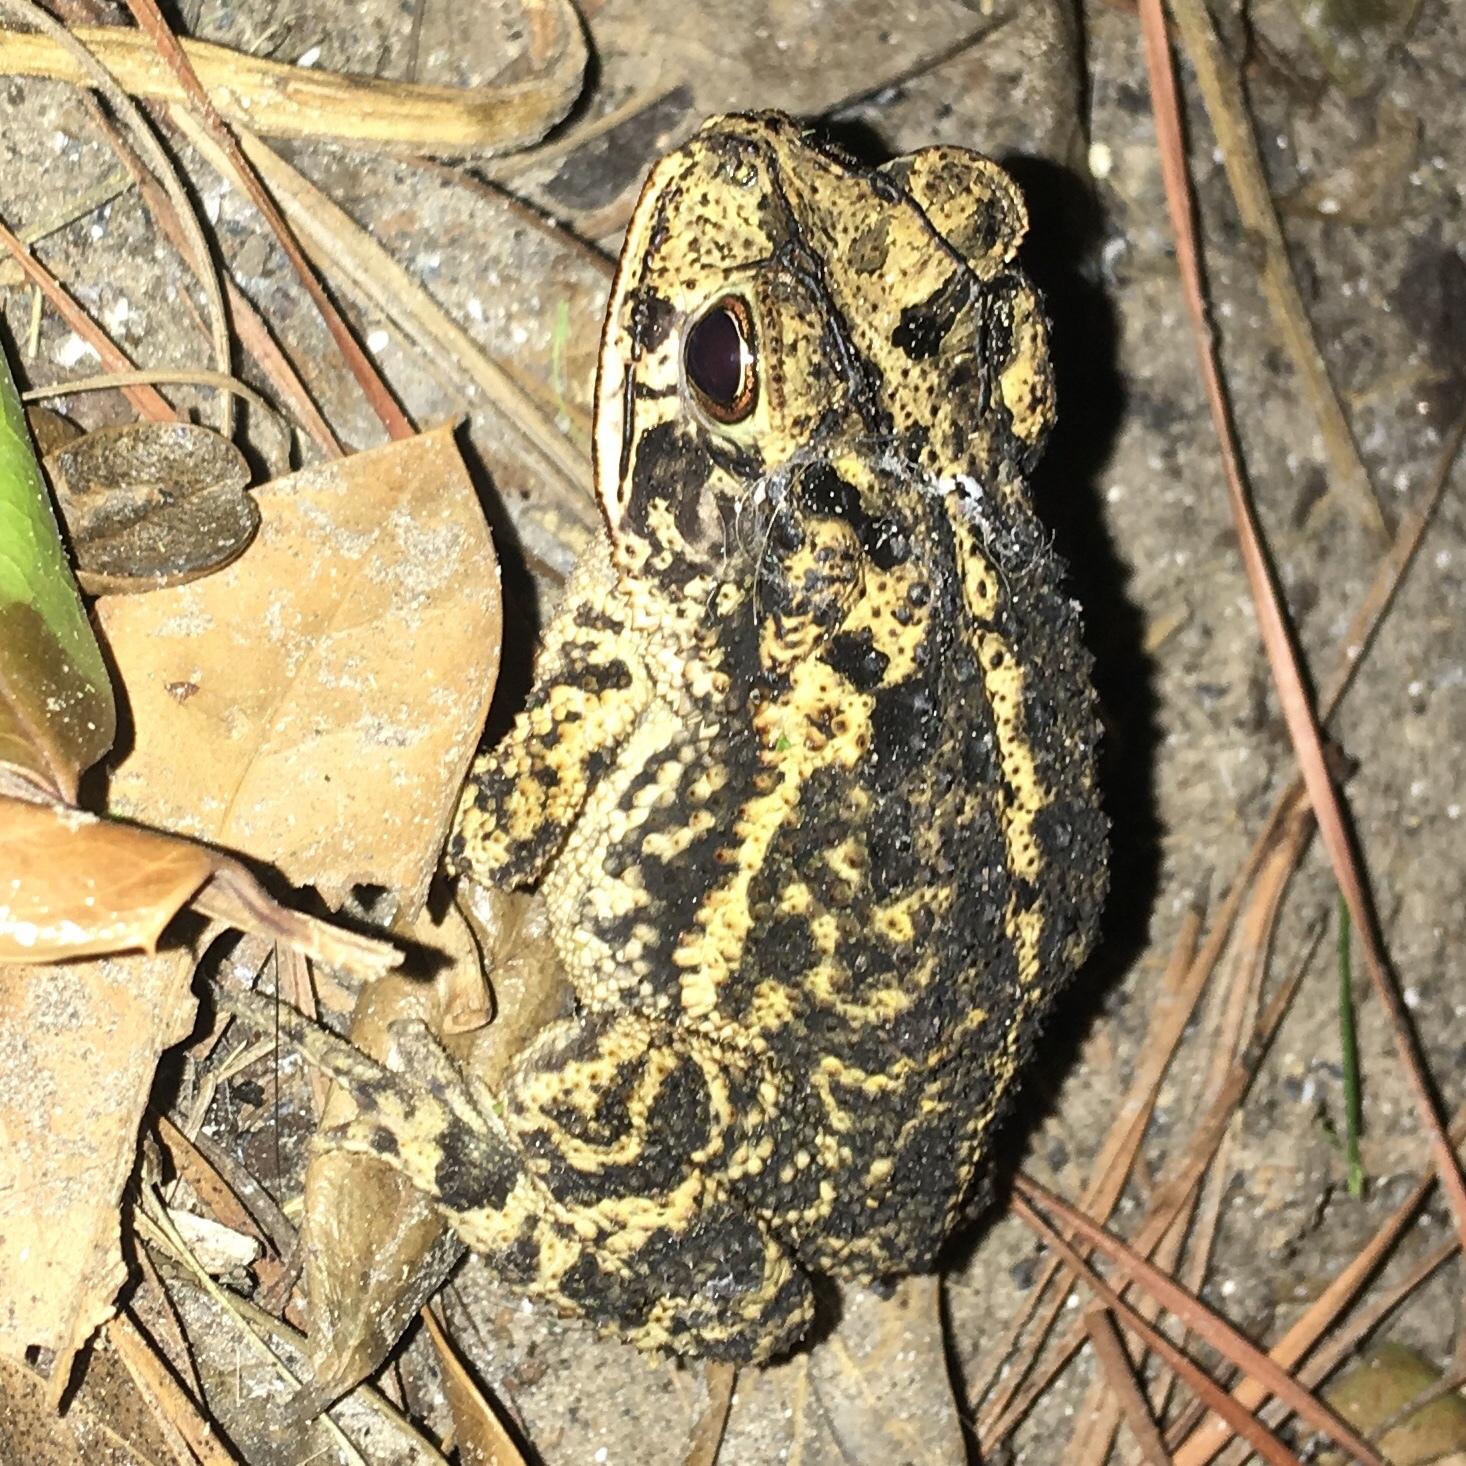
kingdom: Animalia
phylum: Chordata
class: Amphibia
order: Anura
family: Bufonidae
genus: Incilius
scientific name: Incilius nebulifer
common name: Gulf coast toad
